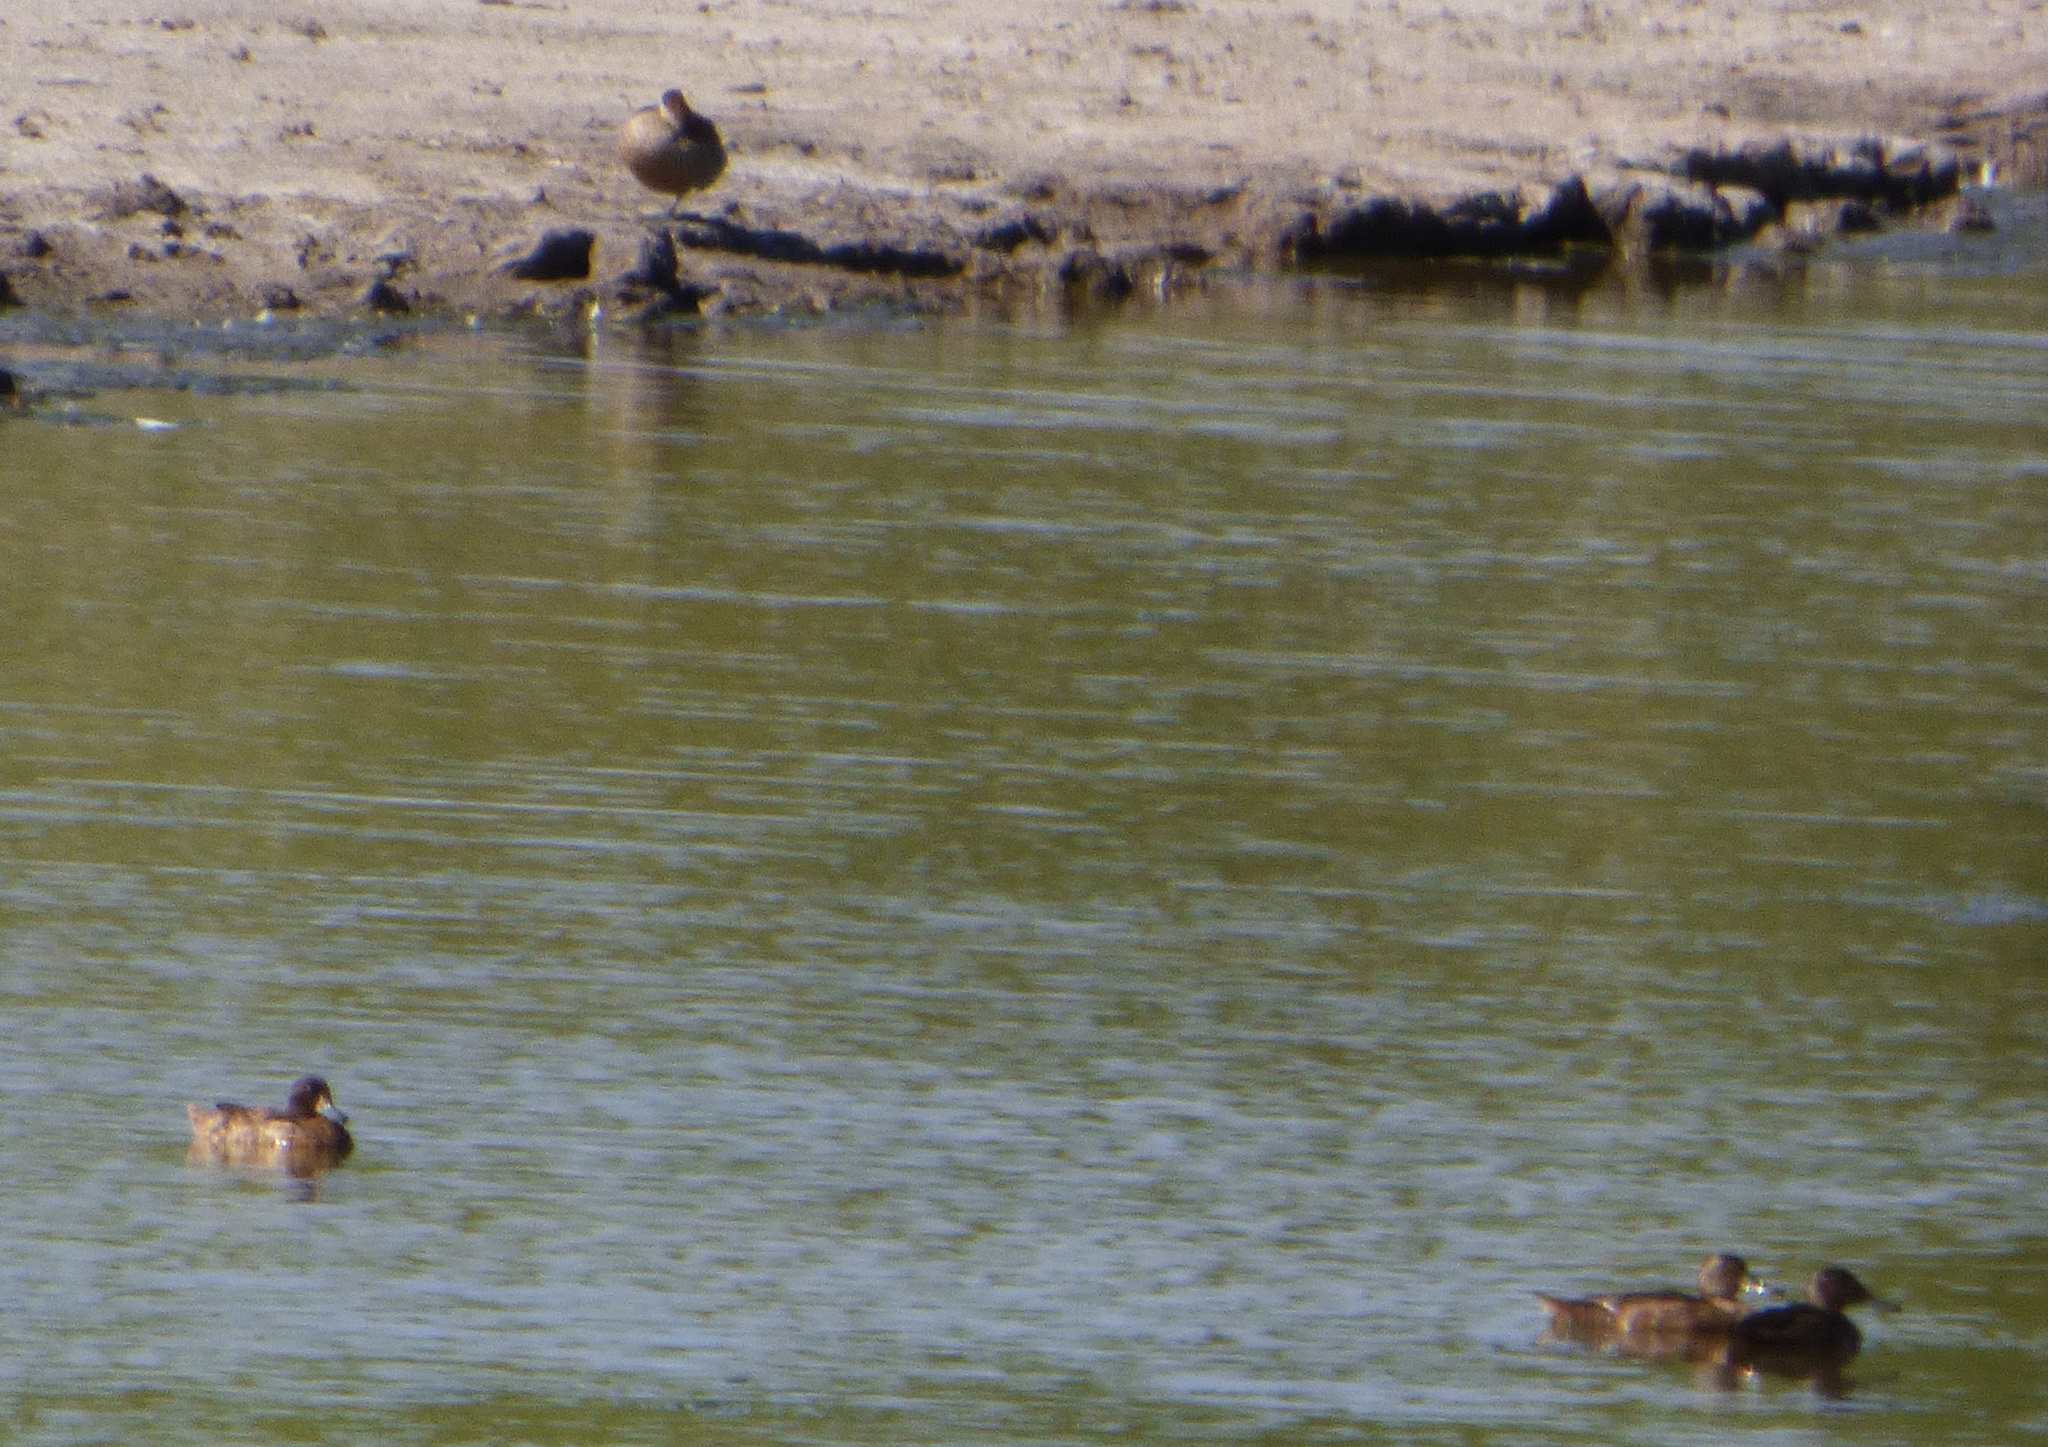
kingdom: Animalia
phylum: Chordata
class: Aves
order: Anseriformes
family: Anatidae
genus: Heteronetta
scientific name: Heteronetta atricapilla
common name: Black-headed duck
